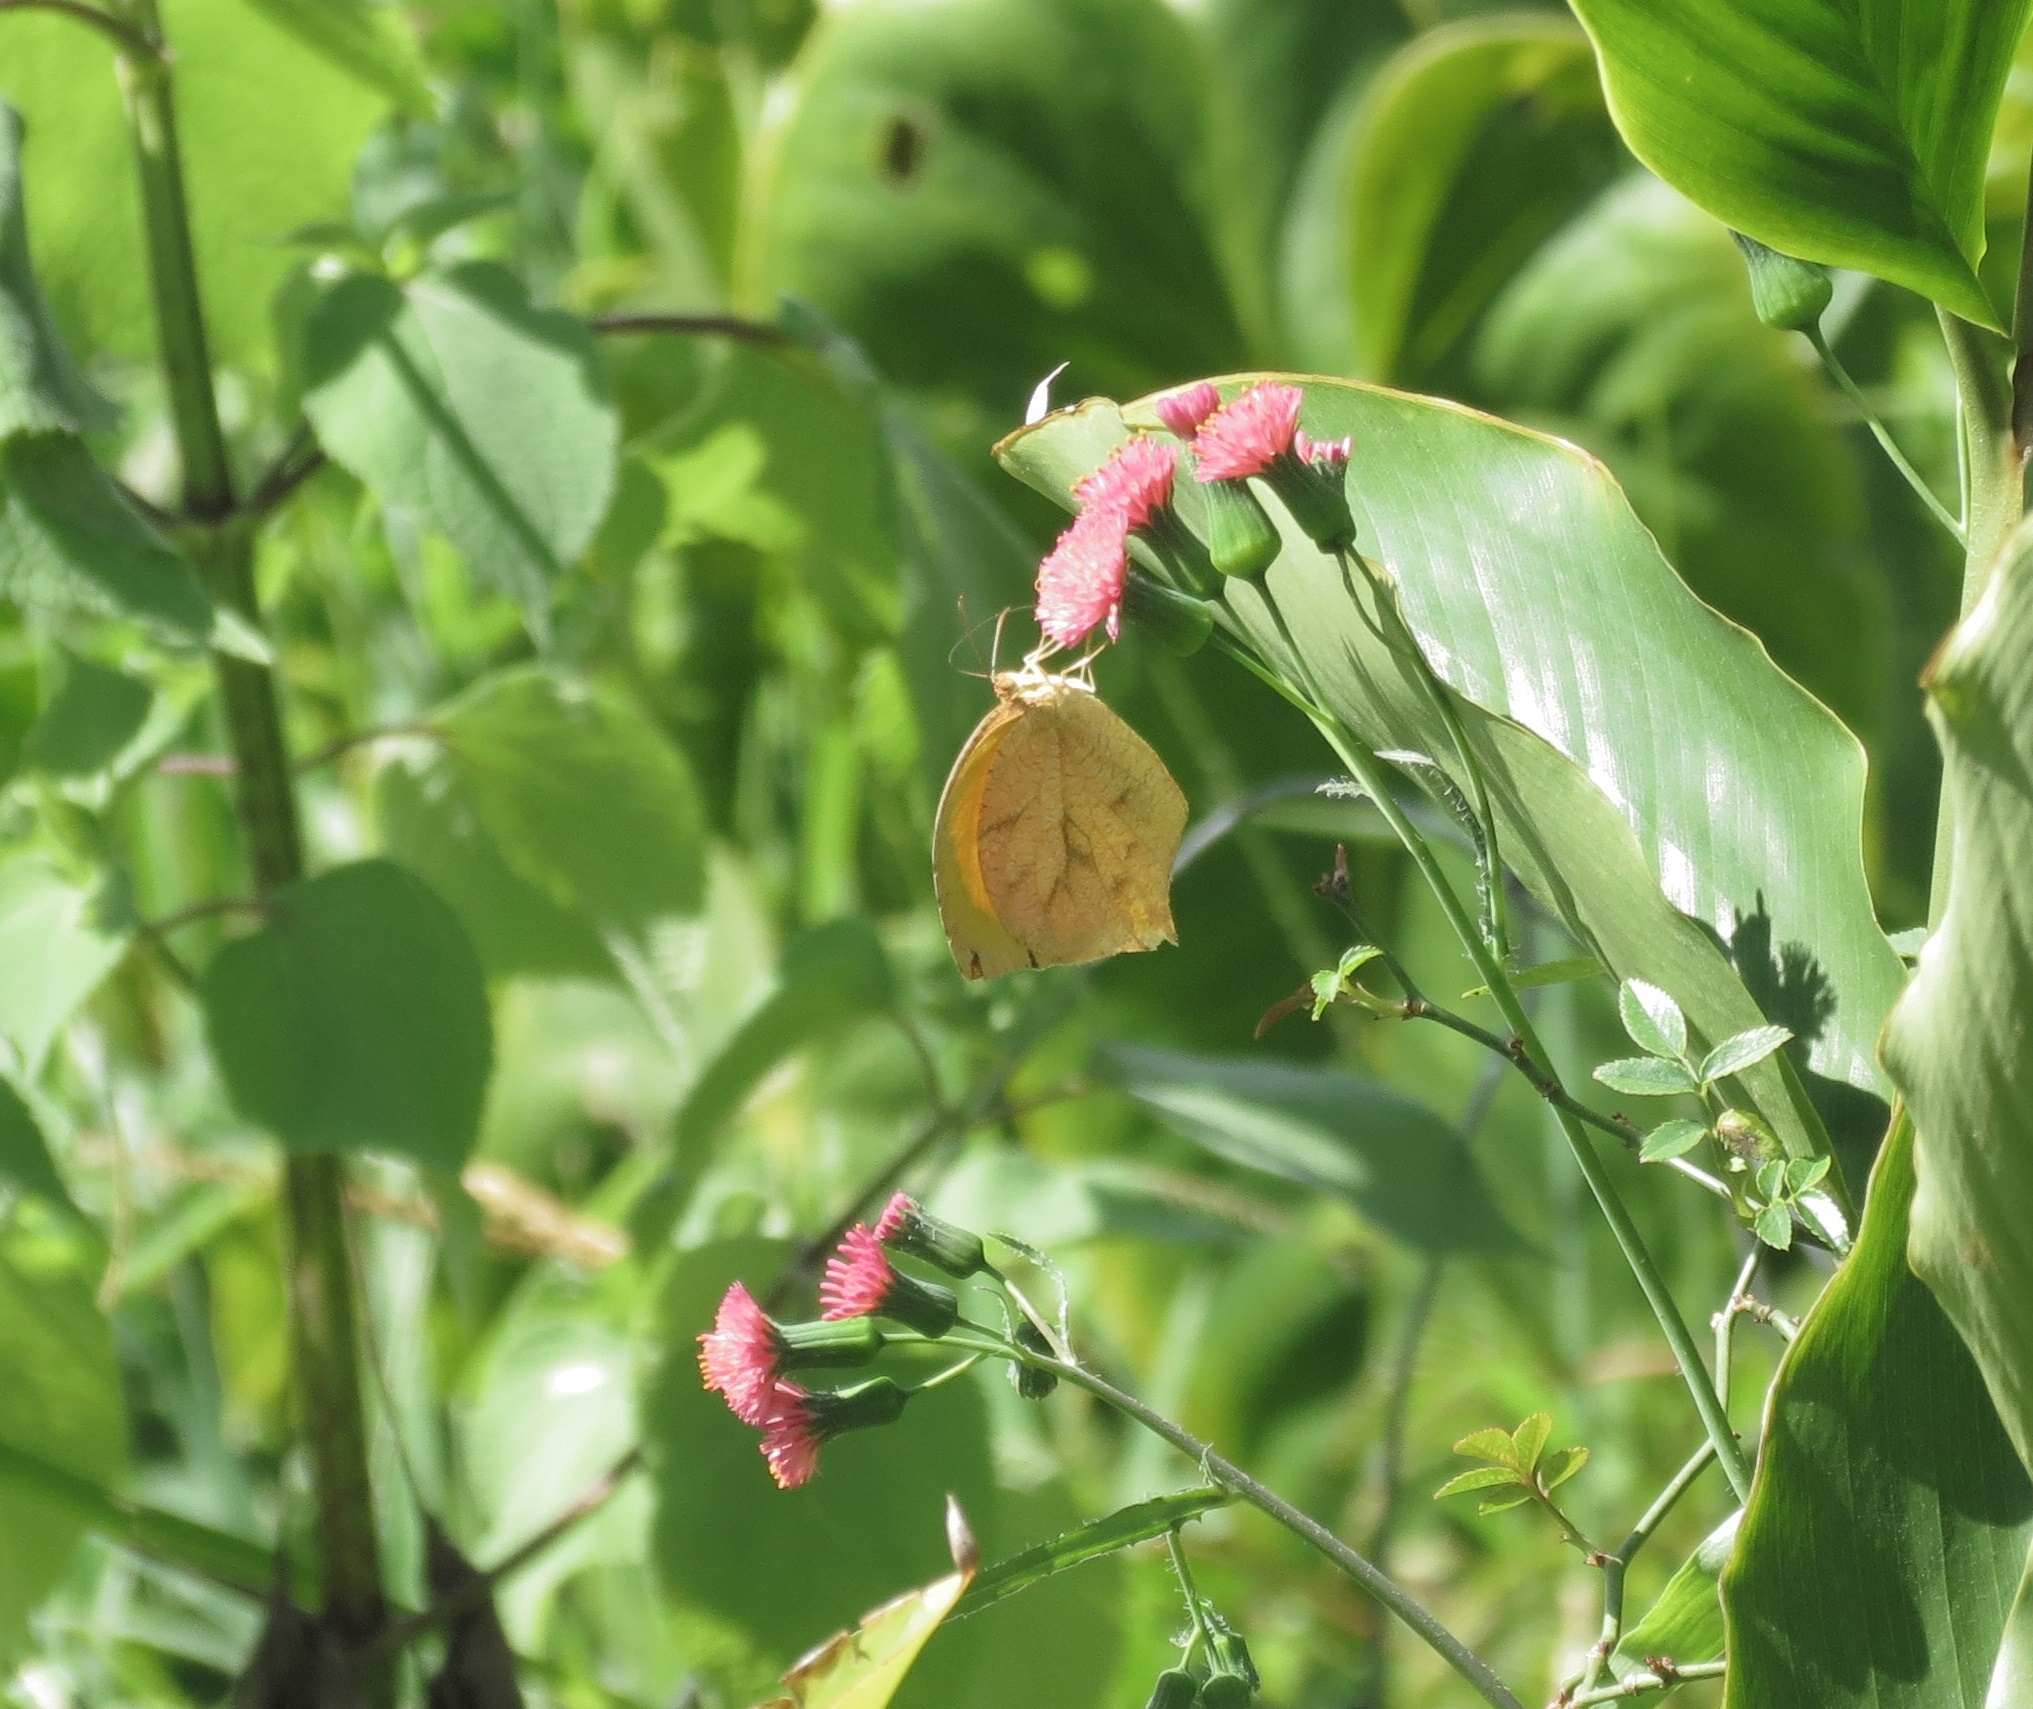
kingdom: Animalia
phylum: Arthropoda
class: Insecta
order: Lepidoptera
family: Pieridae
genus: Pyrisitia
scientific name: Pyrisitia proterpia
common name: Tailed orange
